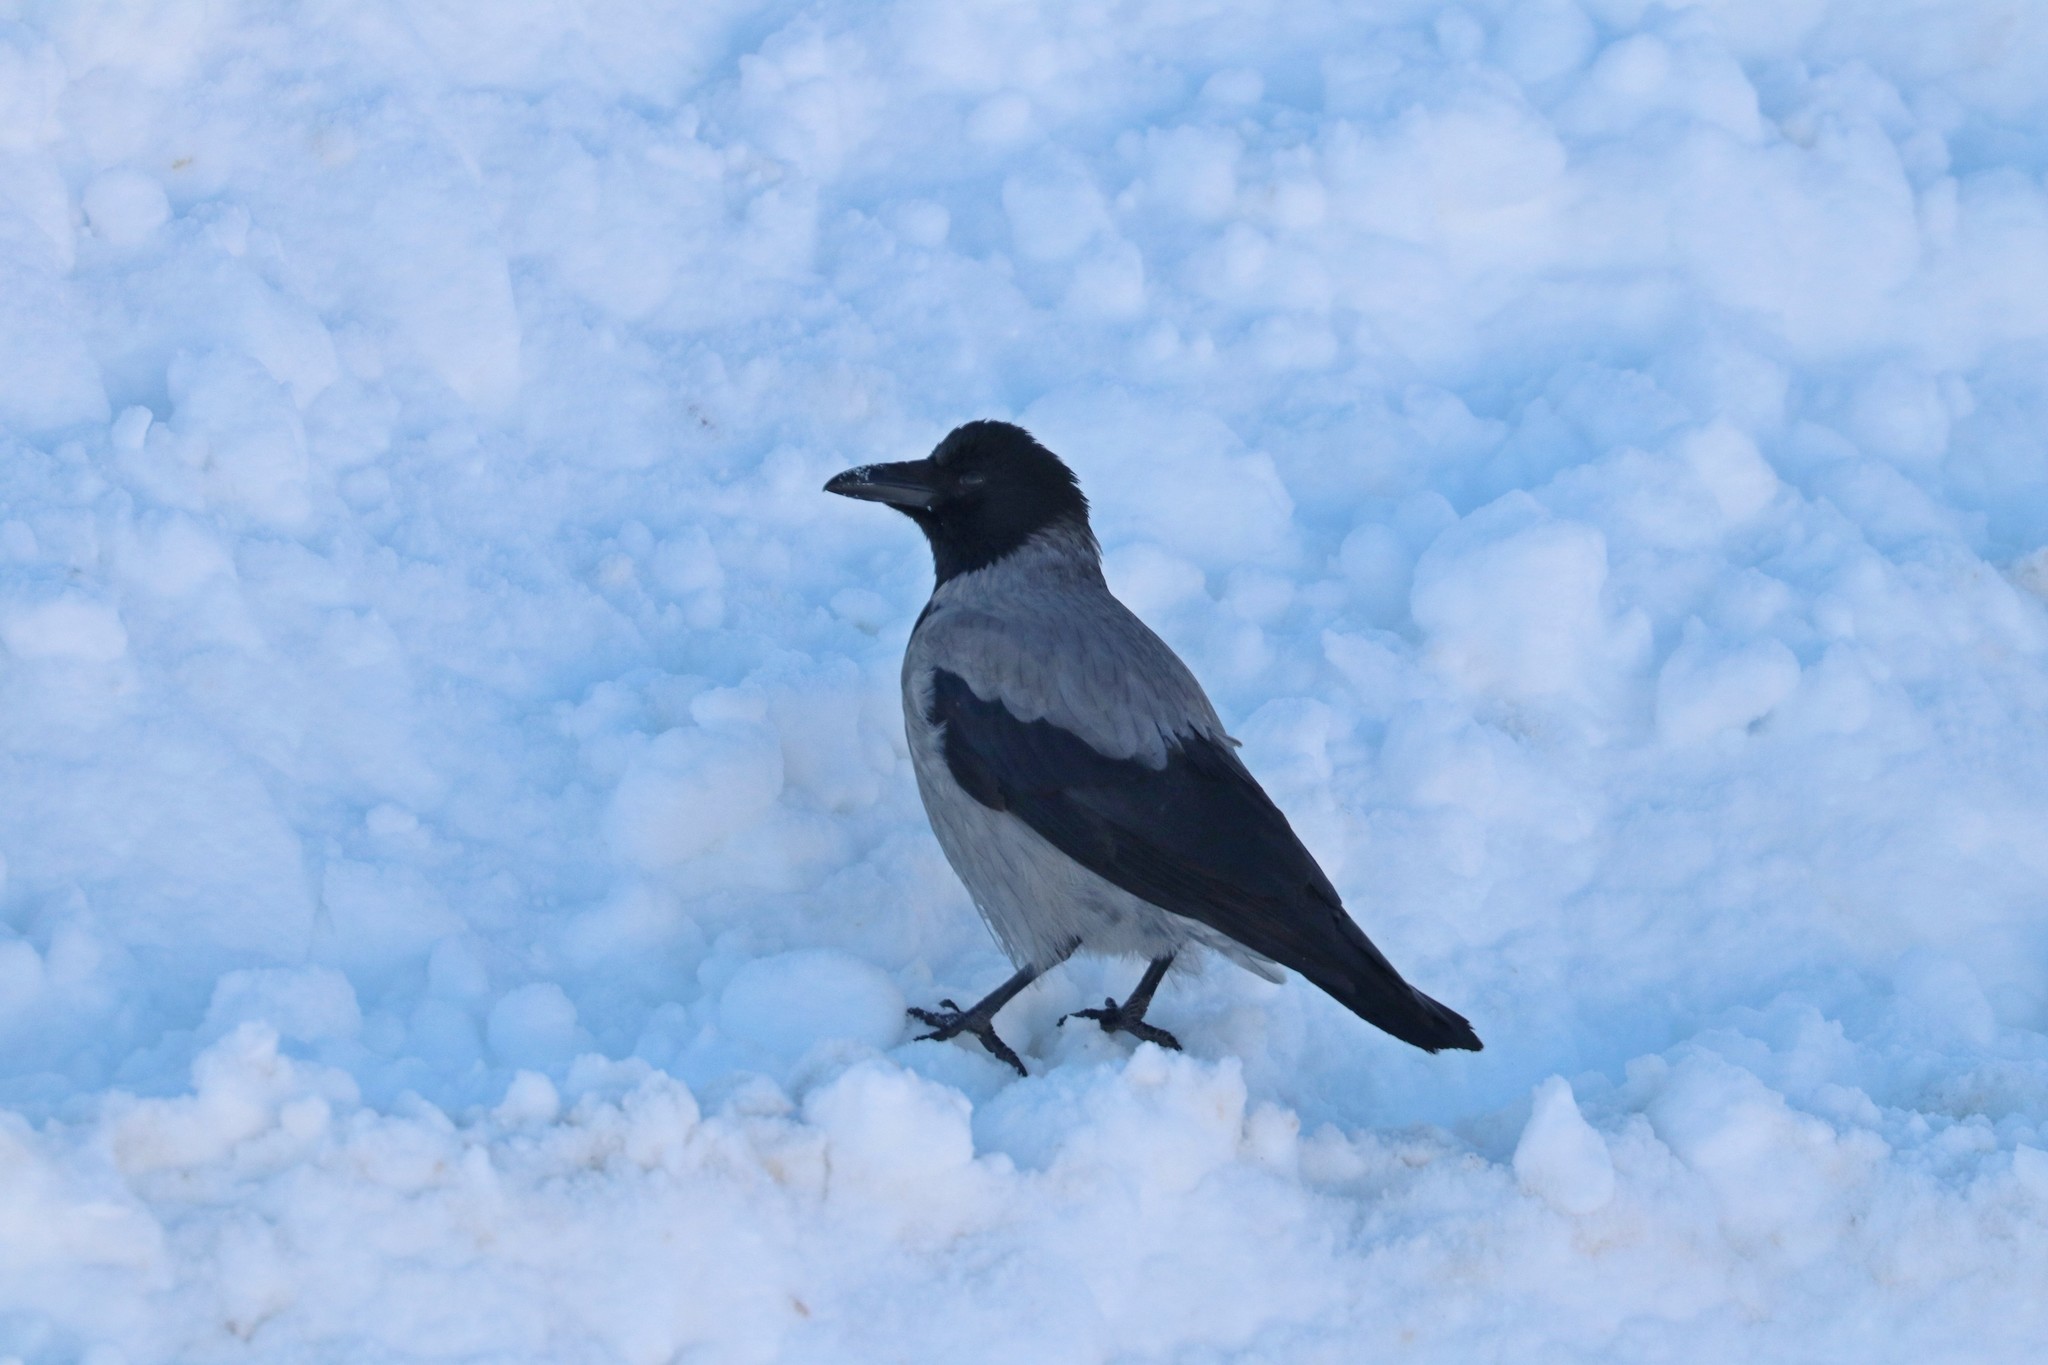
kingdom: Animalia
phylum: Chordata
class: Aves
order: Passeriformes
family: Corvidae
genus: Corvus
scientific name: Corvus cornix
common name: Hooded crow
